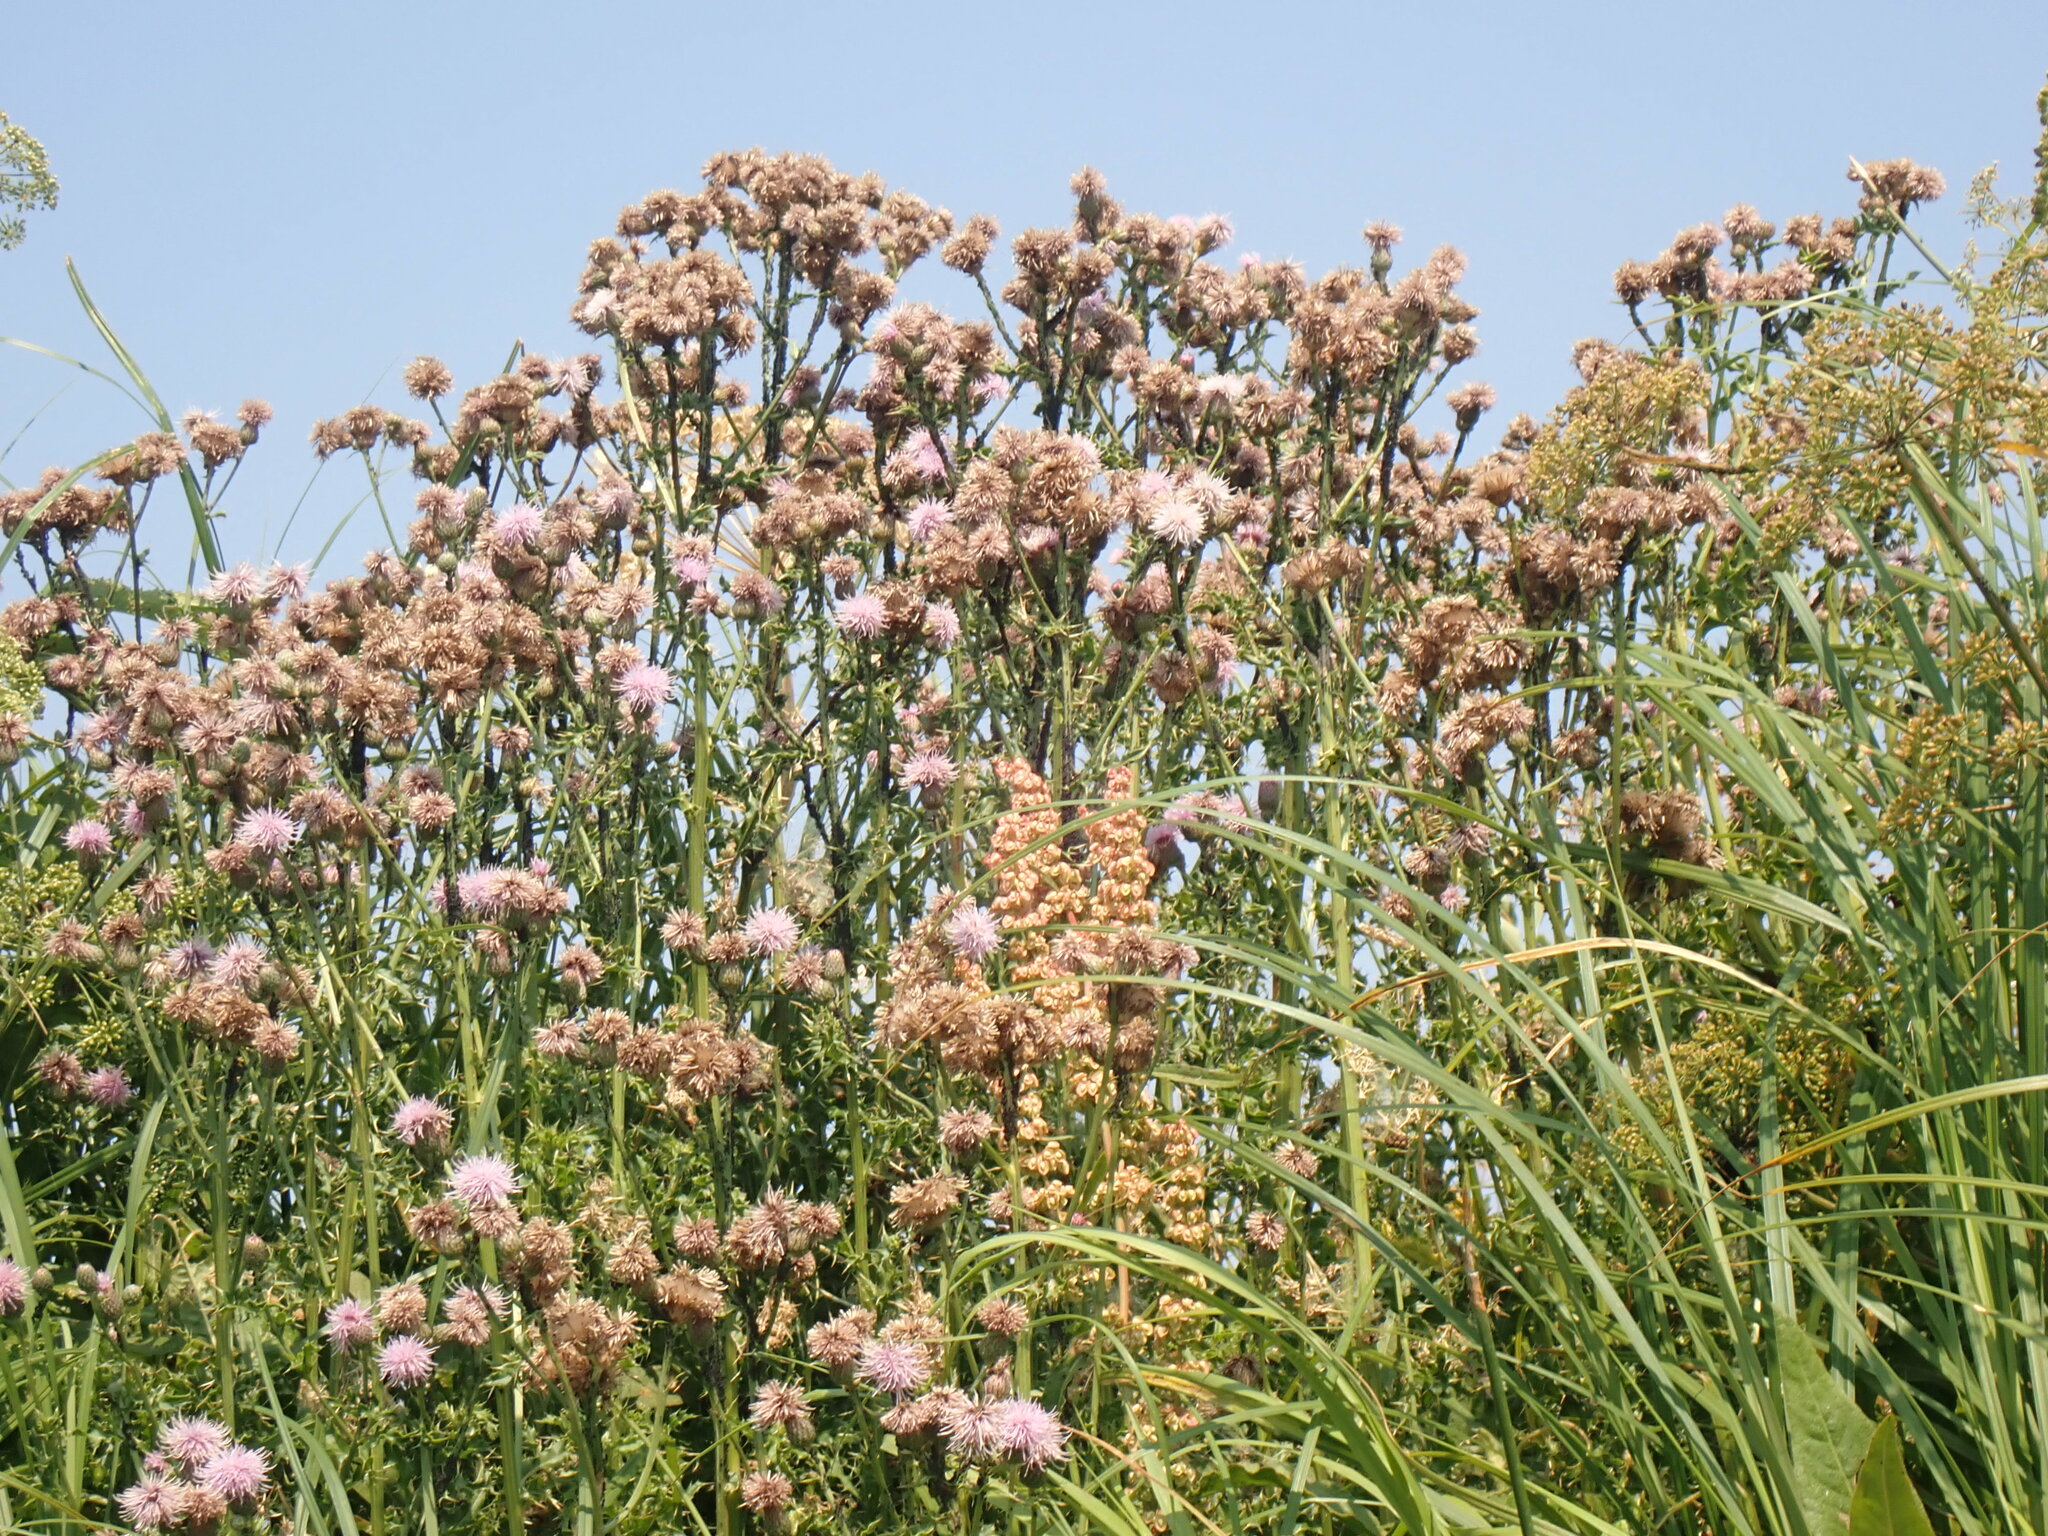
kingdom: Plantae
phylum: Tracheophyta
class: Magnoliopsida
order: Asterales
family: Asteraceae
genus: Cirsium
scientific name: Cirsium arvense
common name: Creeping thistle
